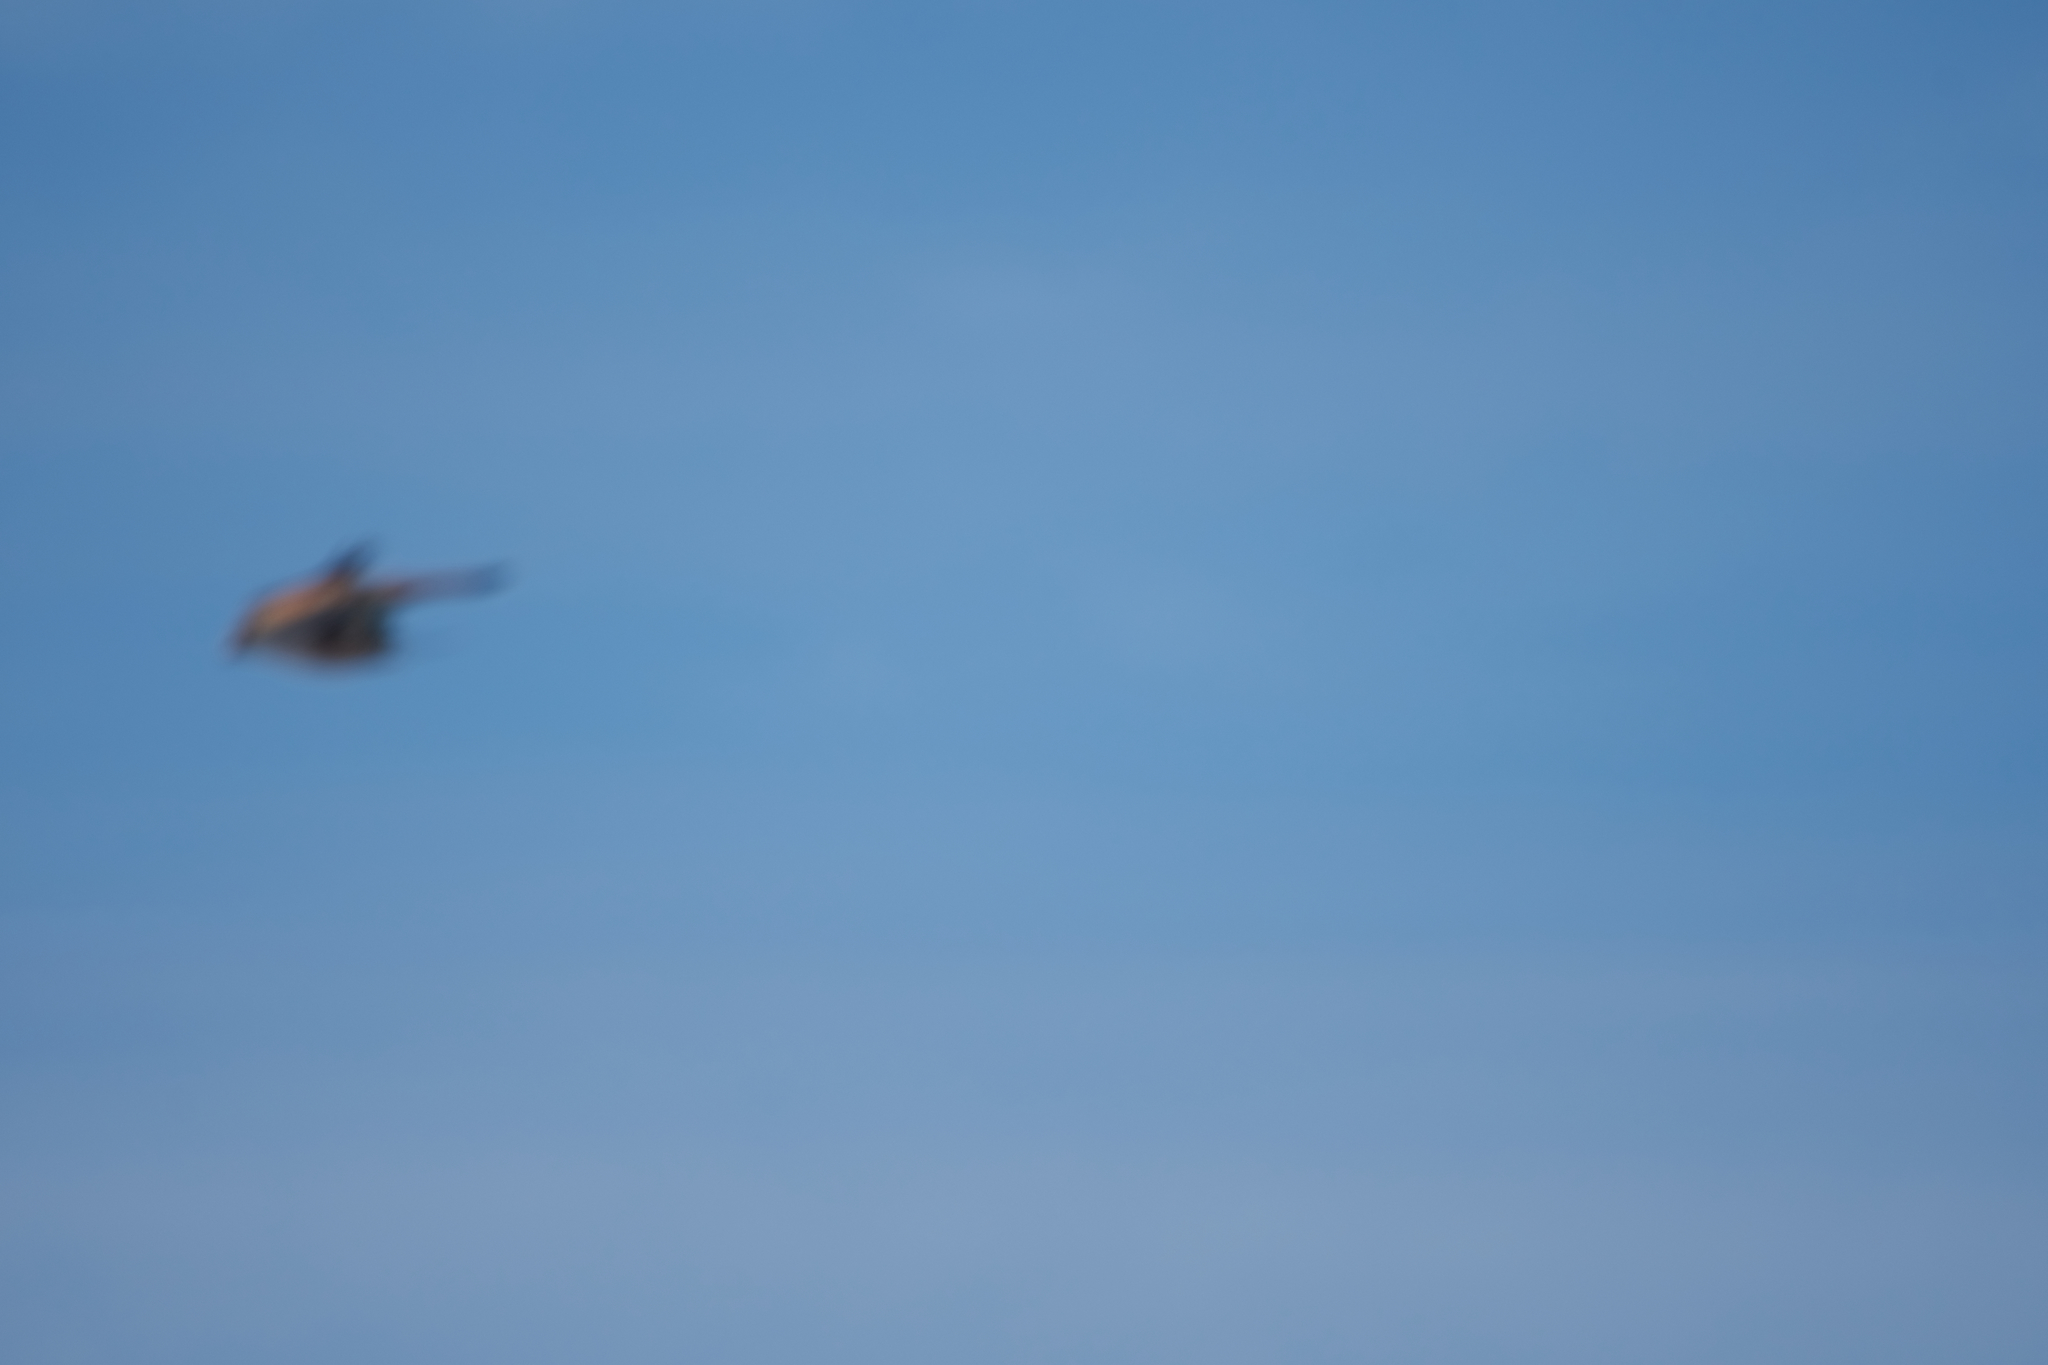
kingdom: Animalia
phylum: Chordata
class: Aves
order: Falconiformes
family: Falconidae
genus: Falco
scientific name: Falco sparverius
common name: American kestrel
